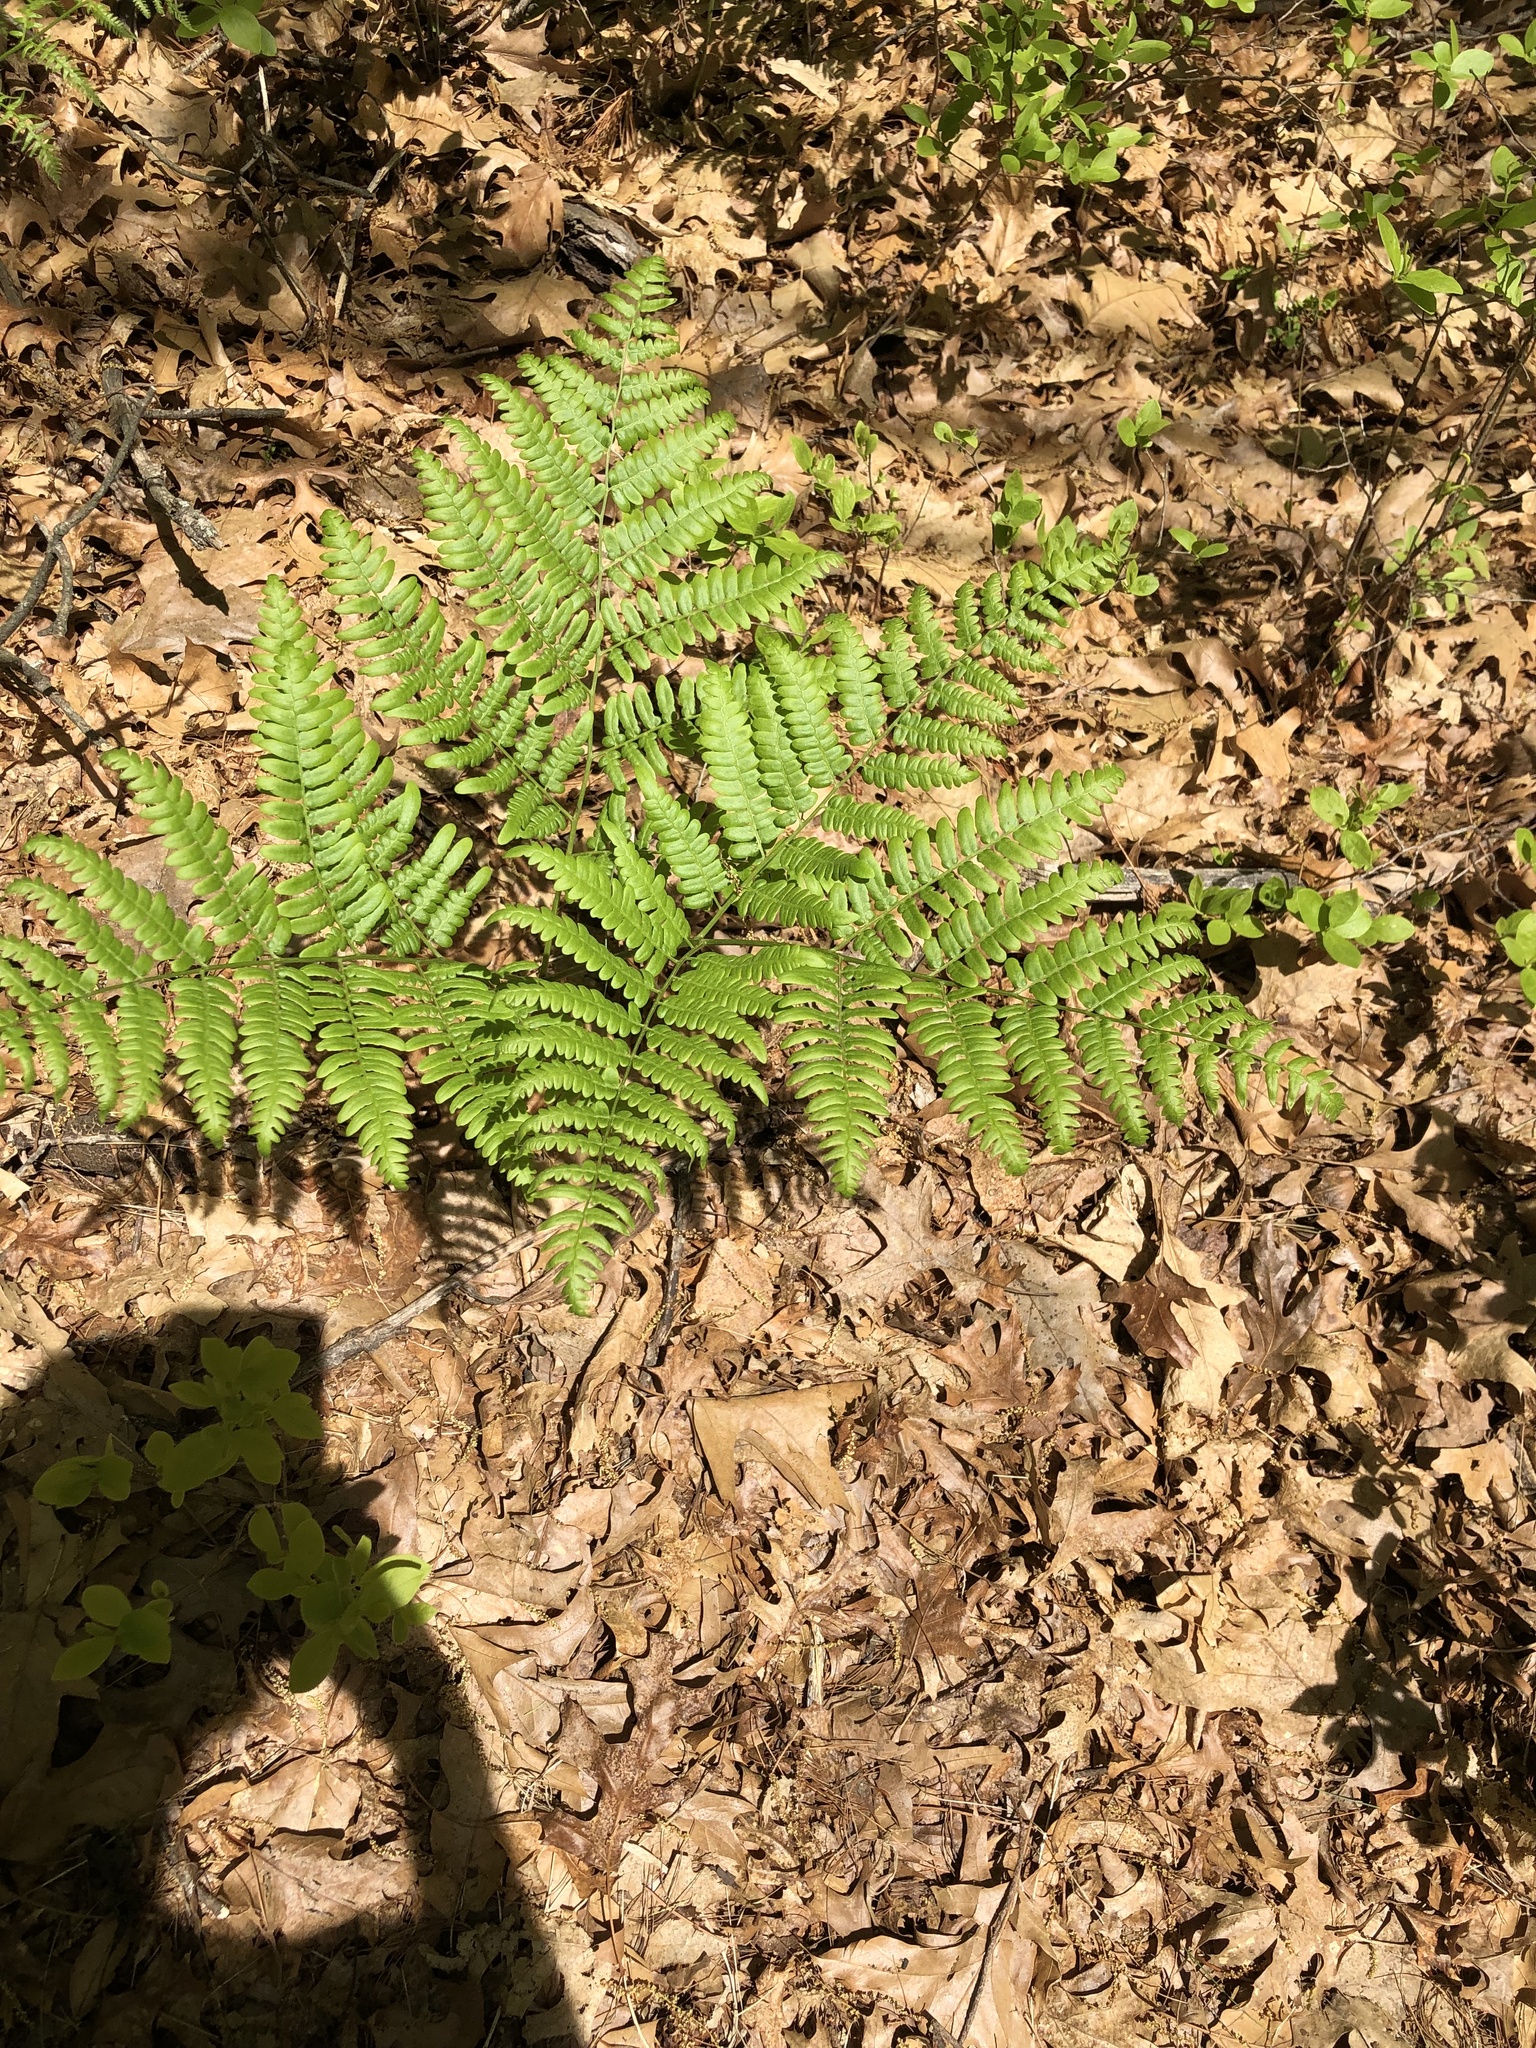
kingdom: Plantae
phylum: Tracheophyta
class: Polypodiopsida
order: Polypodiales
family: Dennstaedtiaceae
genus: Pteridium
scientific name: Pteridium aquilinum
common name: Bracken
